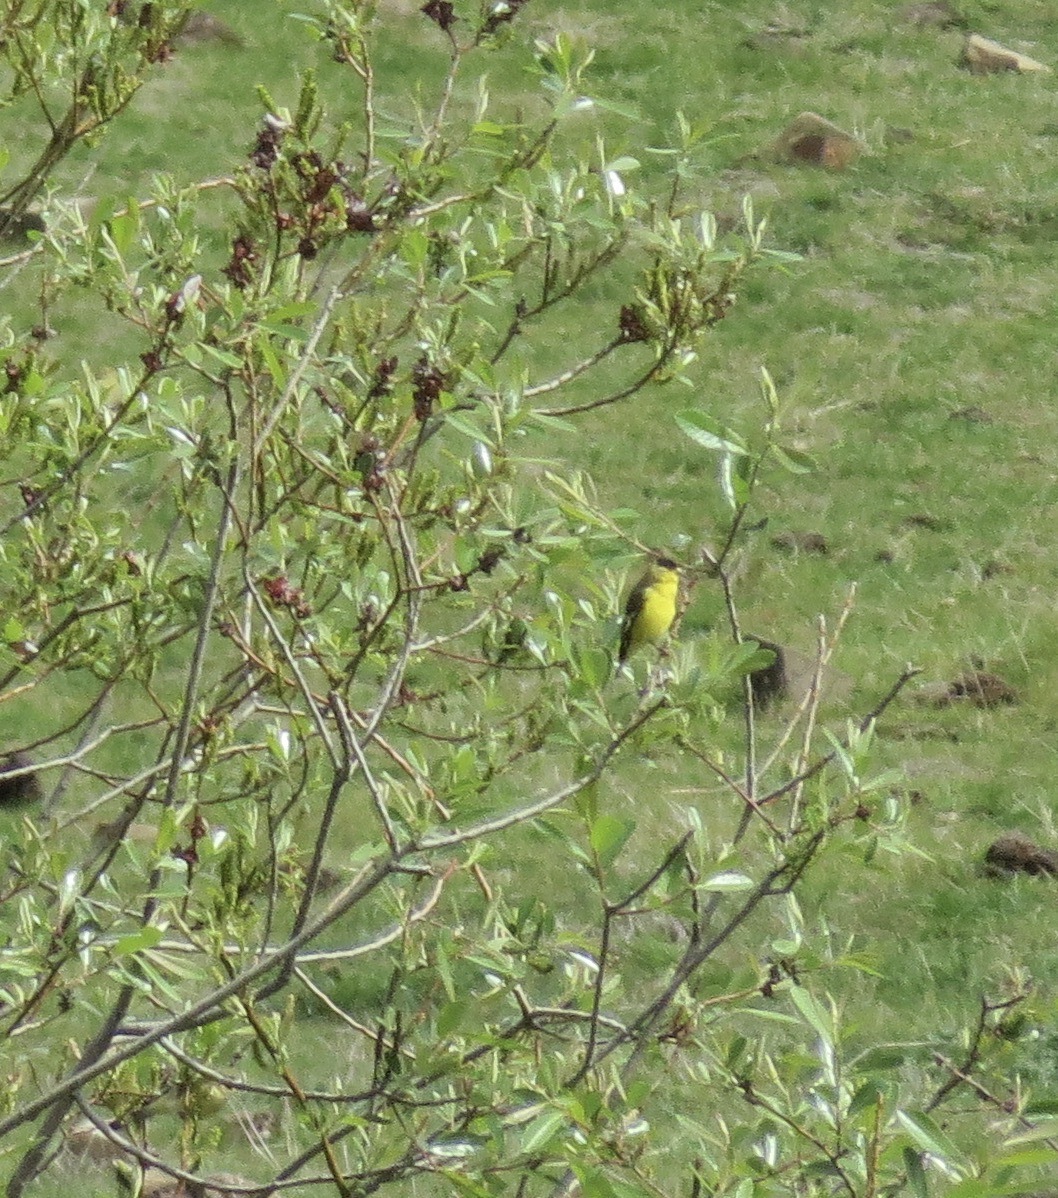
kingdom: Animalia
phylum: Chordata
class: Aves
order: Passeriformes
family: Fringillidae
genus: Spinus
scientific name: Spinus psaltria
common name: Lesser goldfinch
